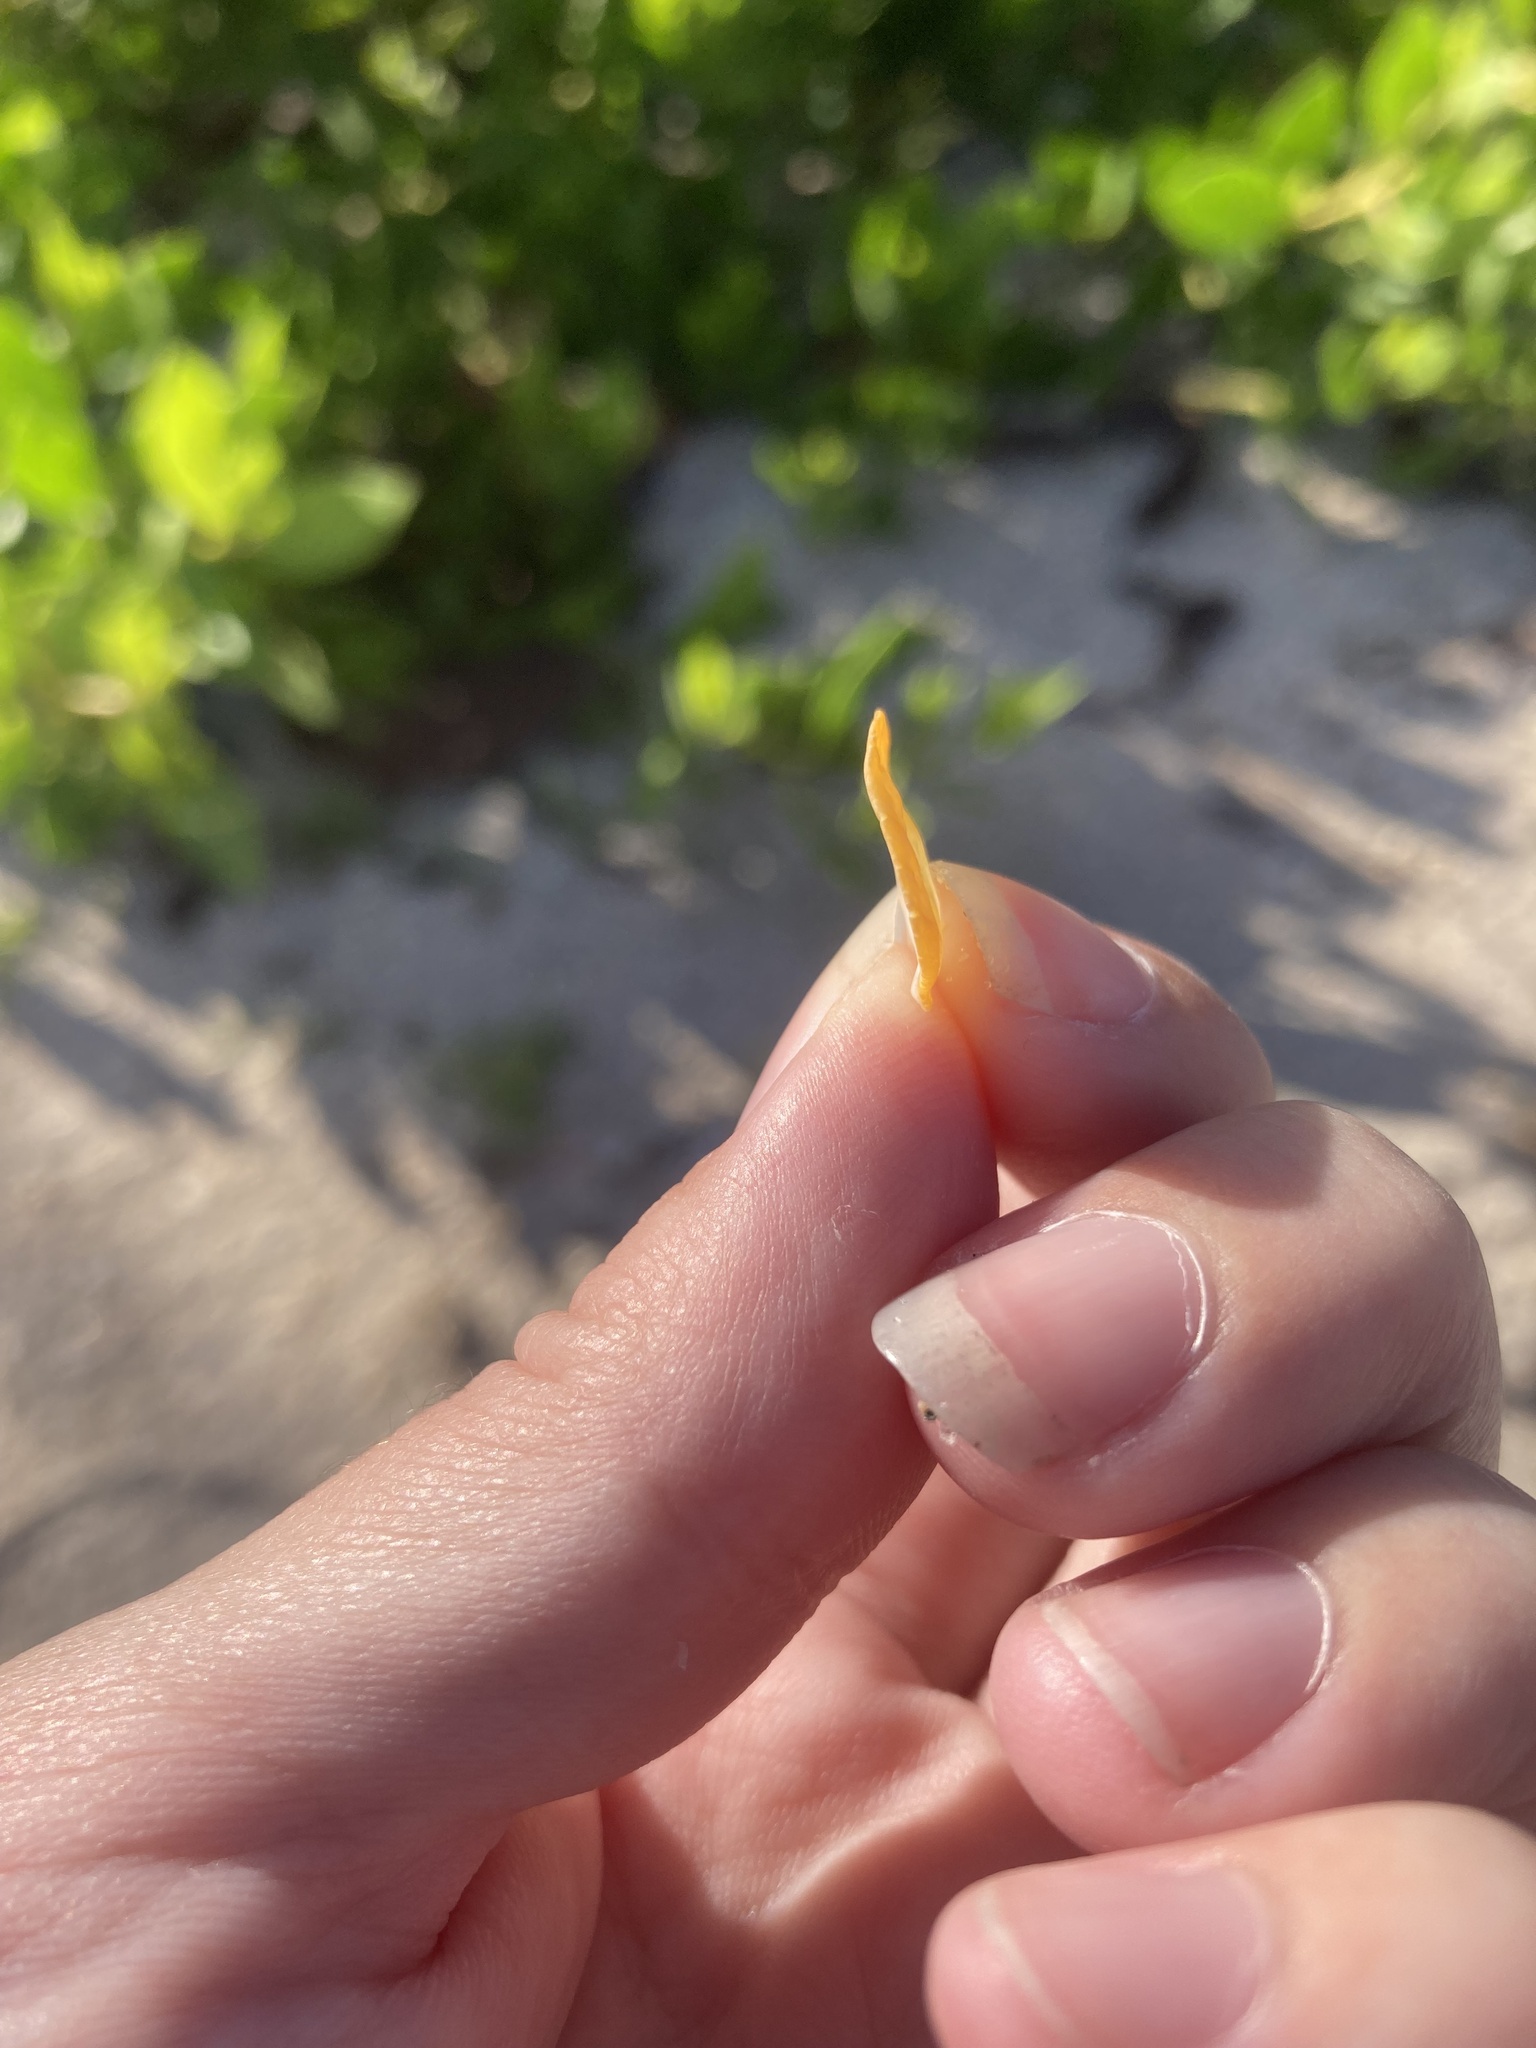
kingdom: Animalia
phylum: Mollusca
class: Bivalvia
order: Pectinida
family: Spondylidae
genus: Spondylus
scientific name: Spondylus tenuis
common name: Digitate thorny oyster
